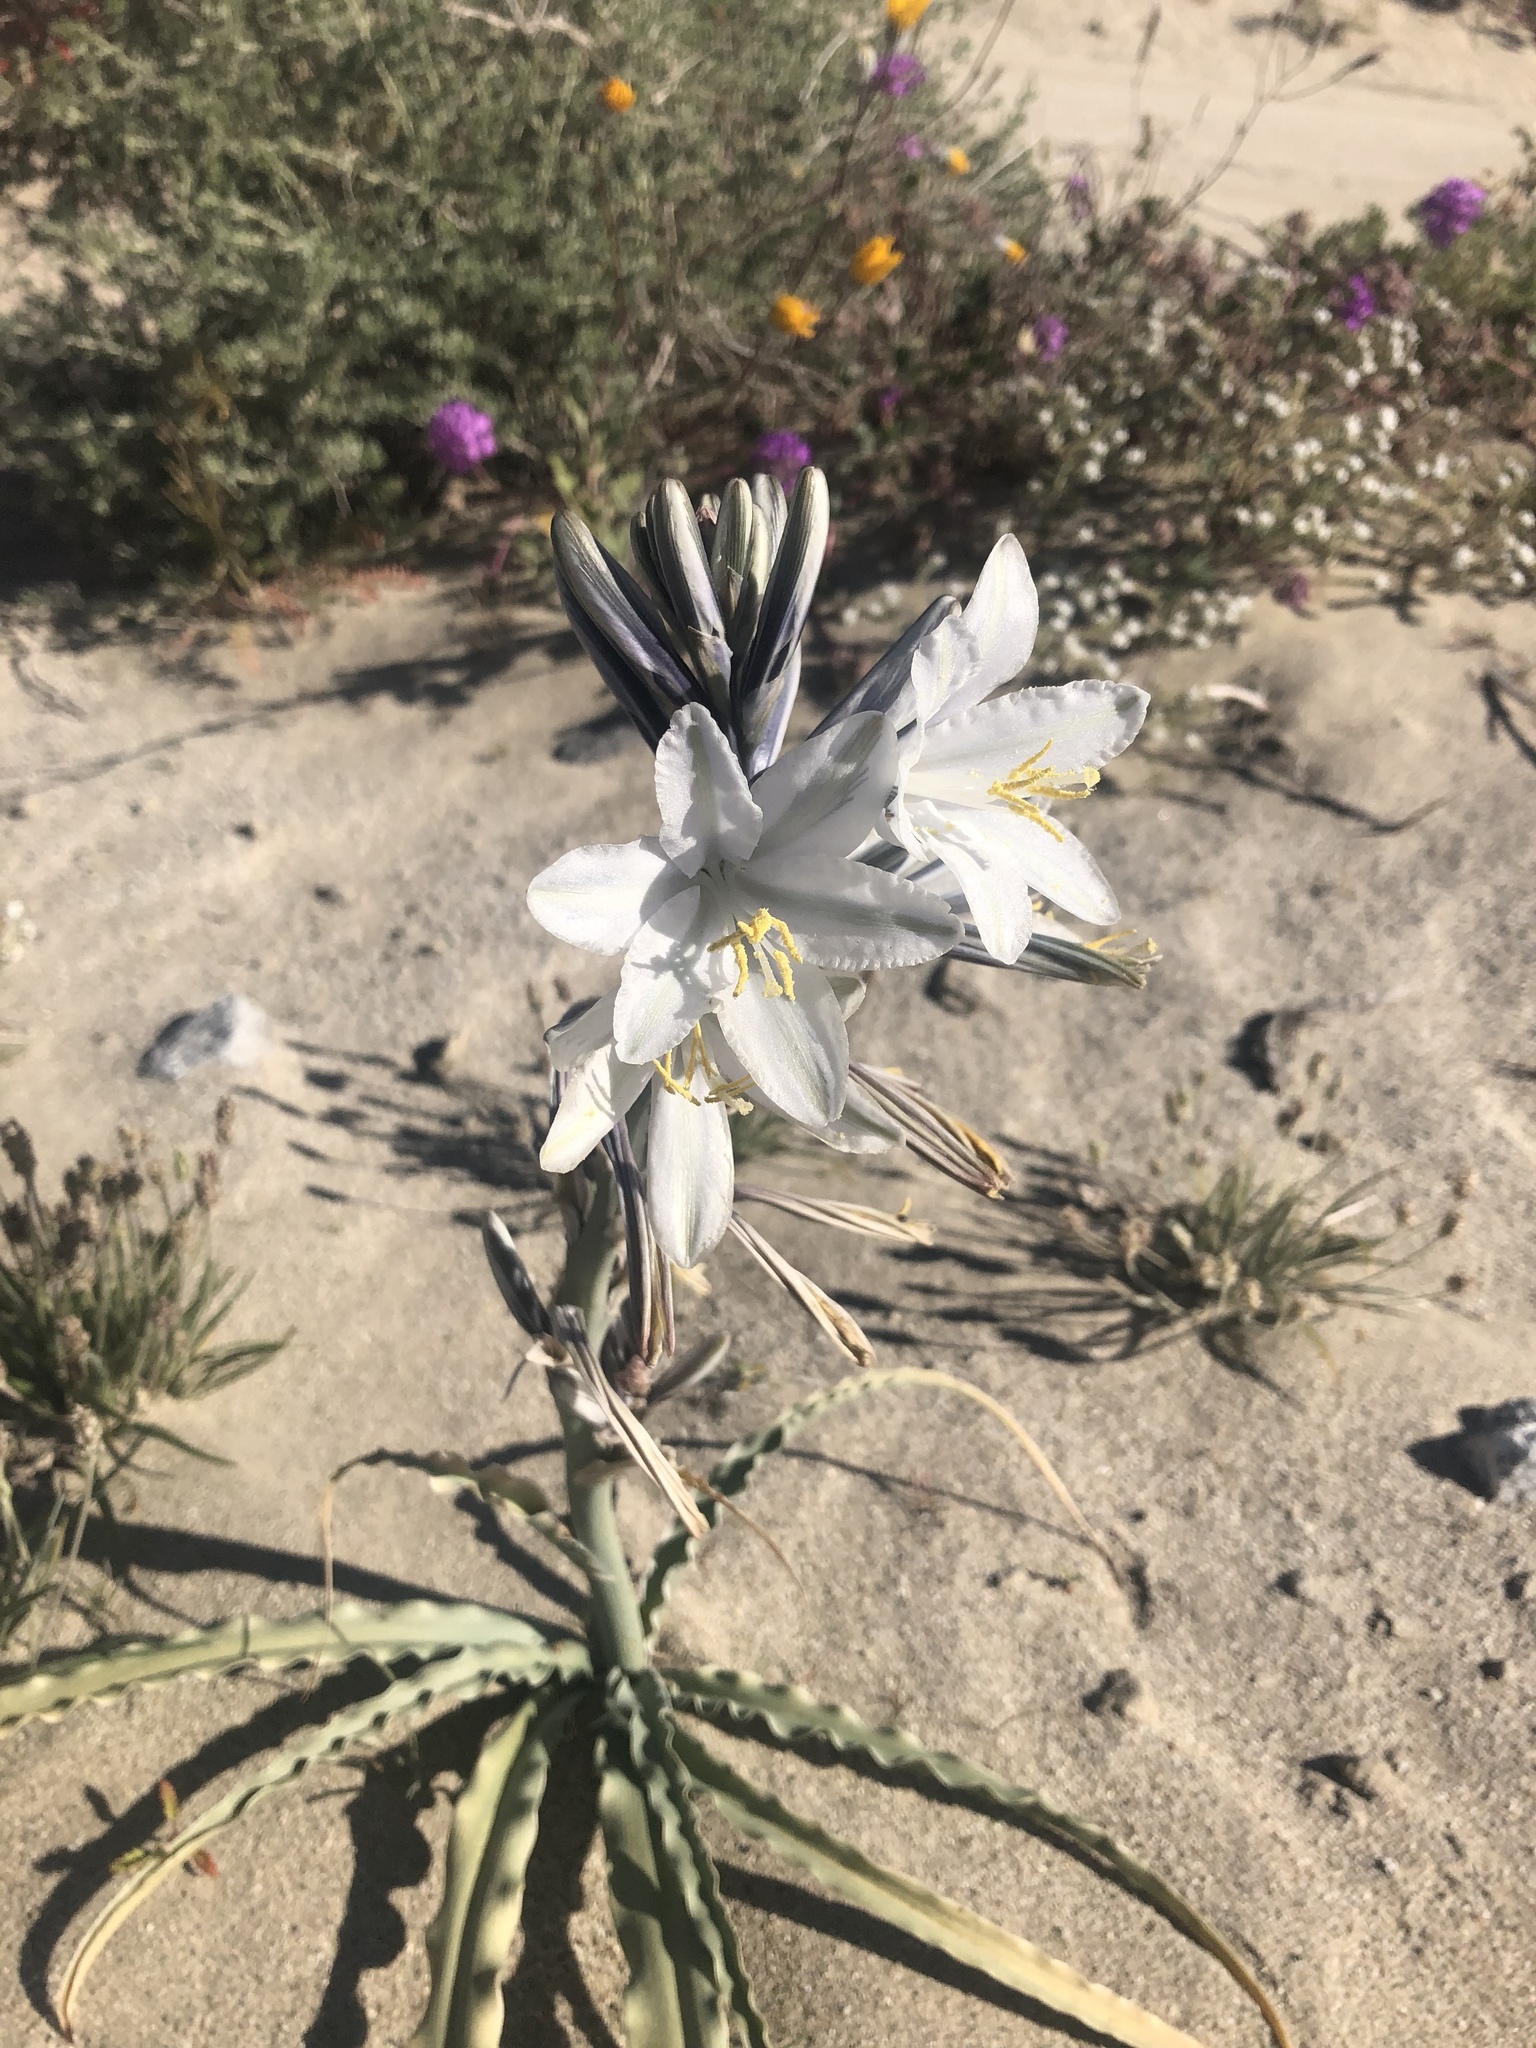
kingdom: Plantae
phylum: Tracheophyta
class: Liliopsida
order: Asparagales
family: Asparagaceae
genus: Hesperocallis
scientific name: Hesperocallis undulata
